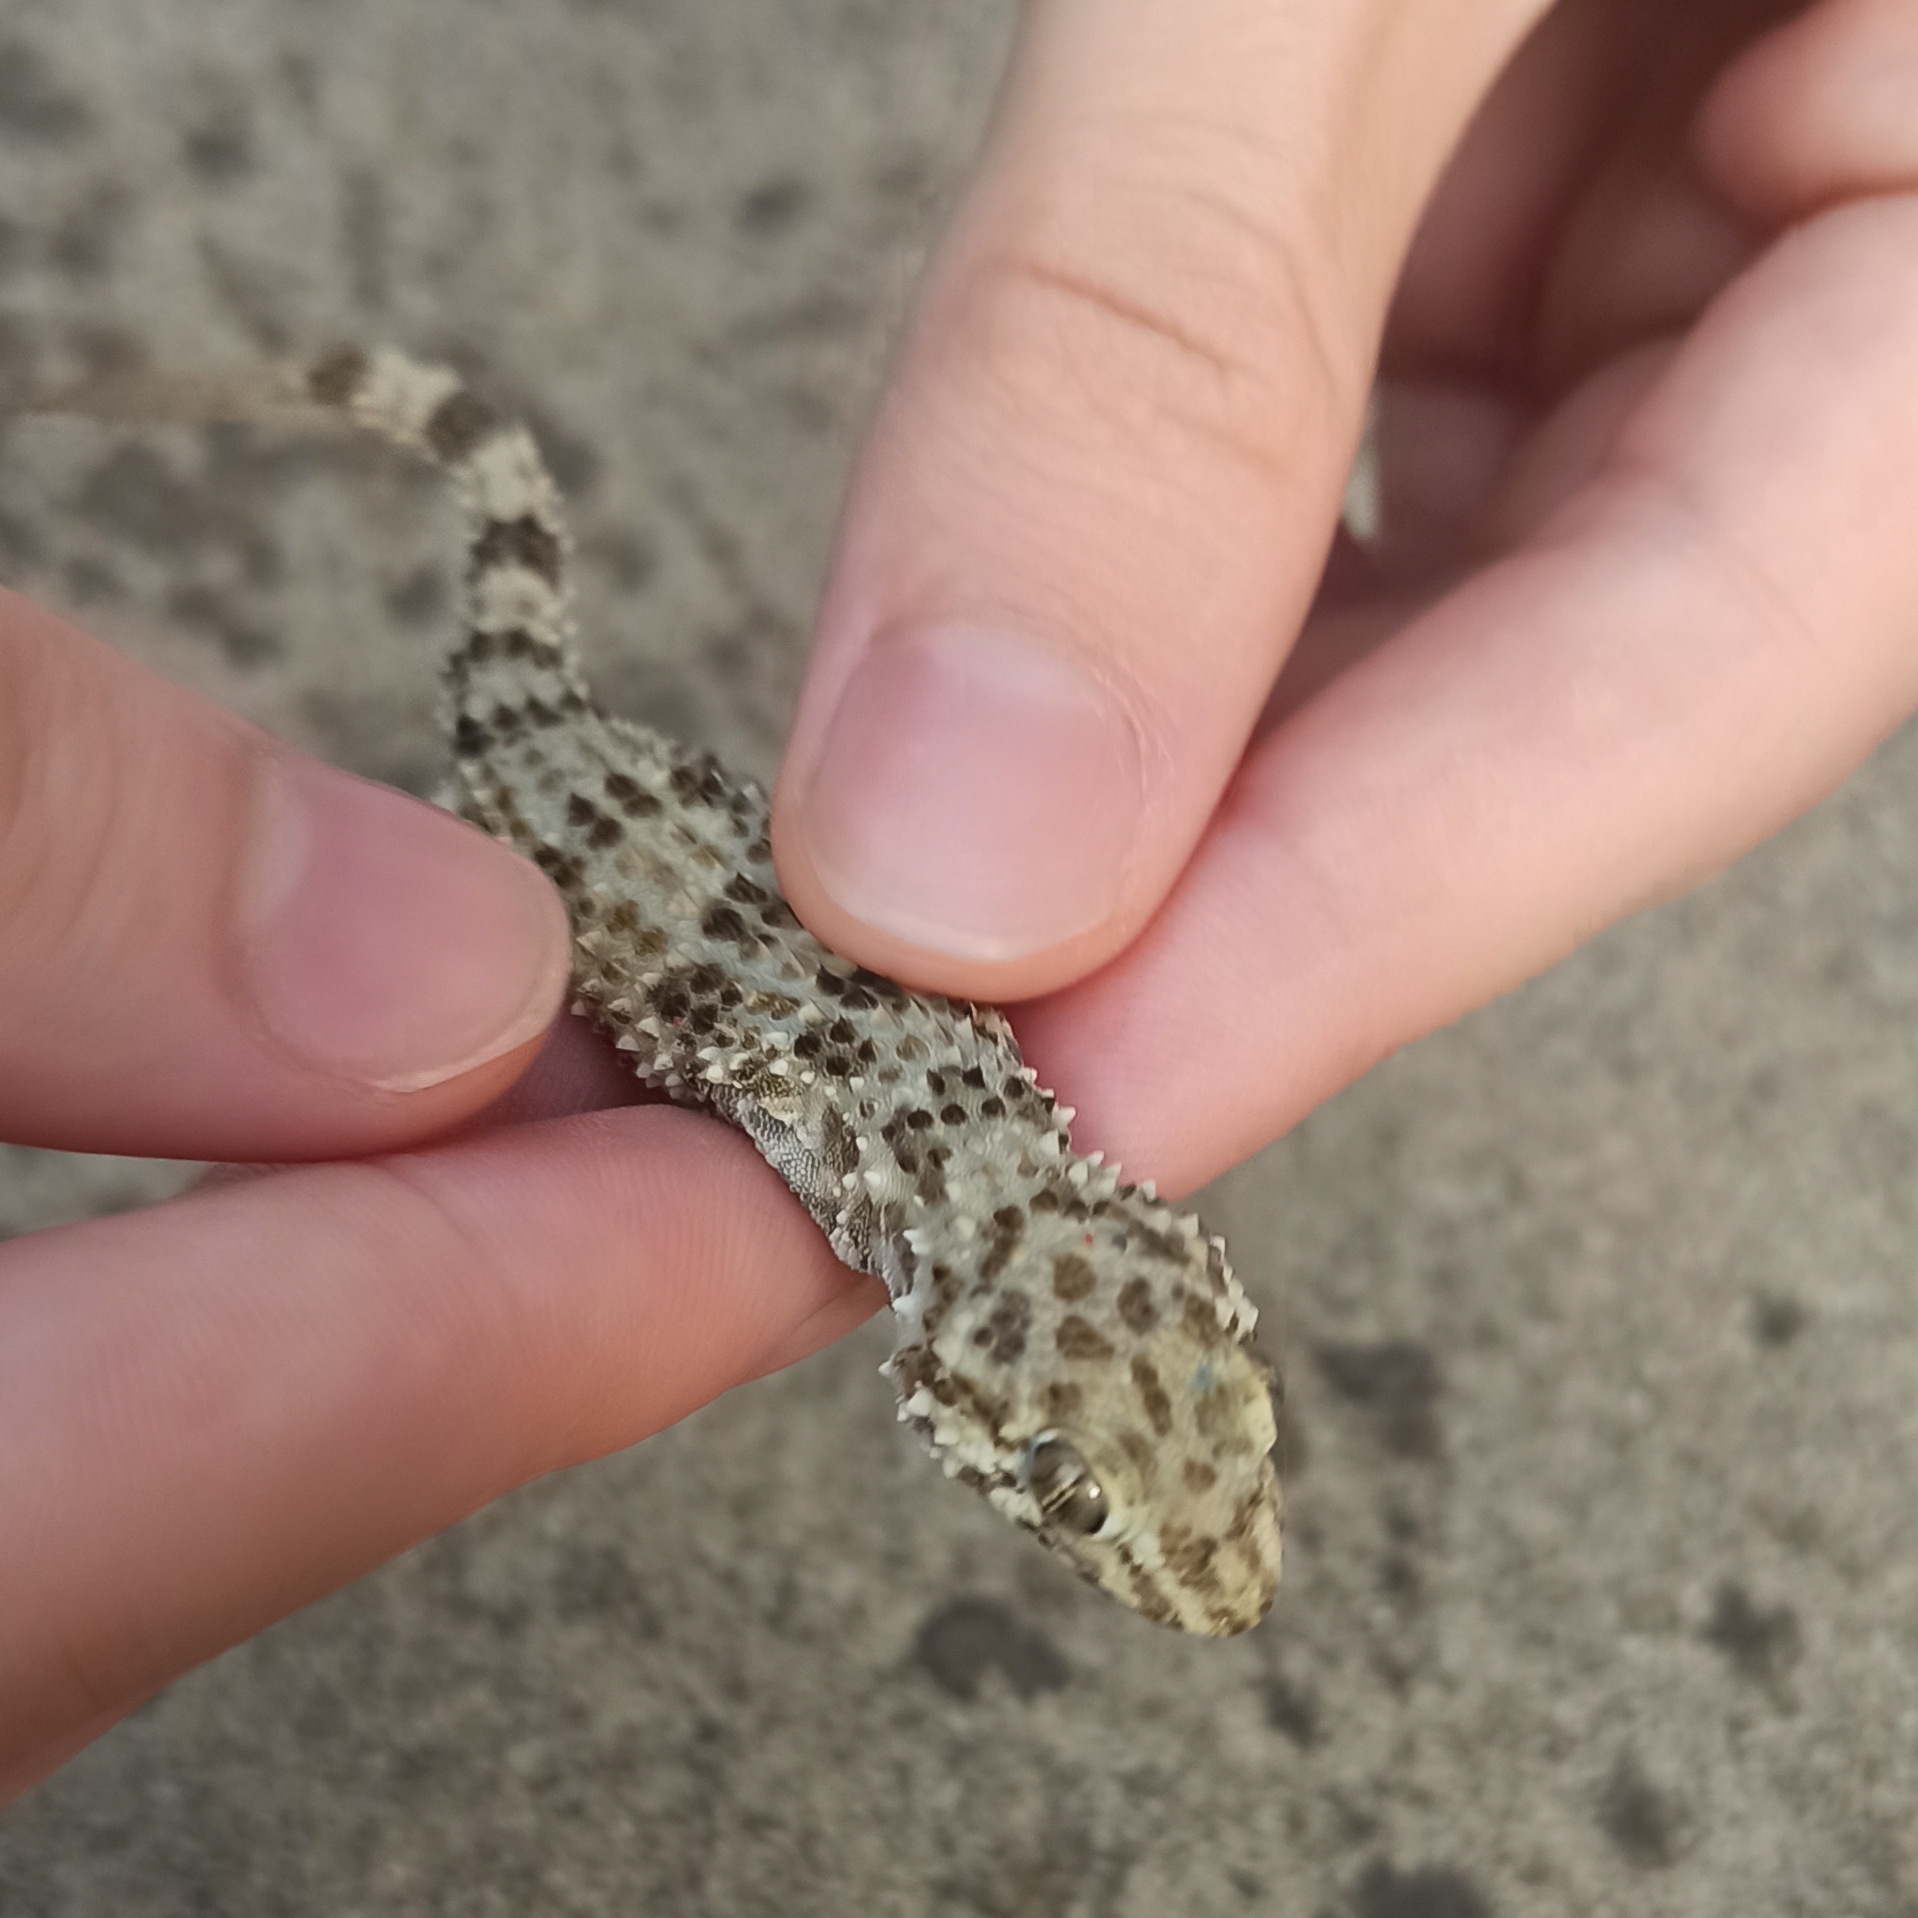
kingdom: Animalia
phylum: Chordata
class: Squamata
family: Gekkonidae
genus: Tenuidactylus
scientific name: Tenuidactylus caspius
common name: Caspian bent-toed gecko
